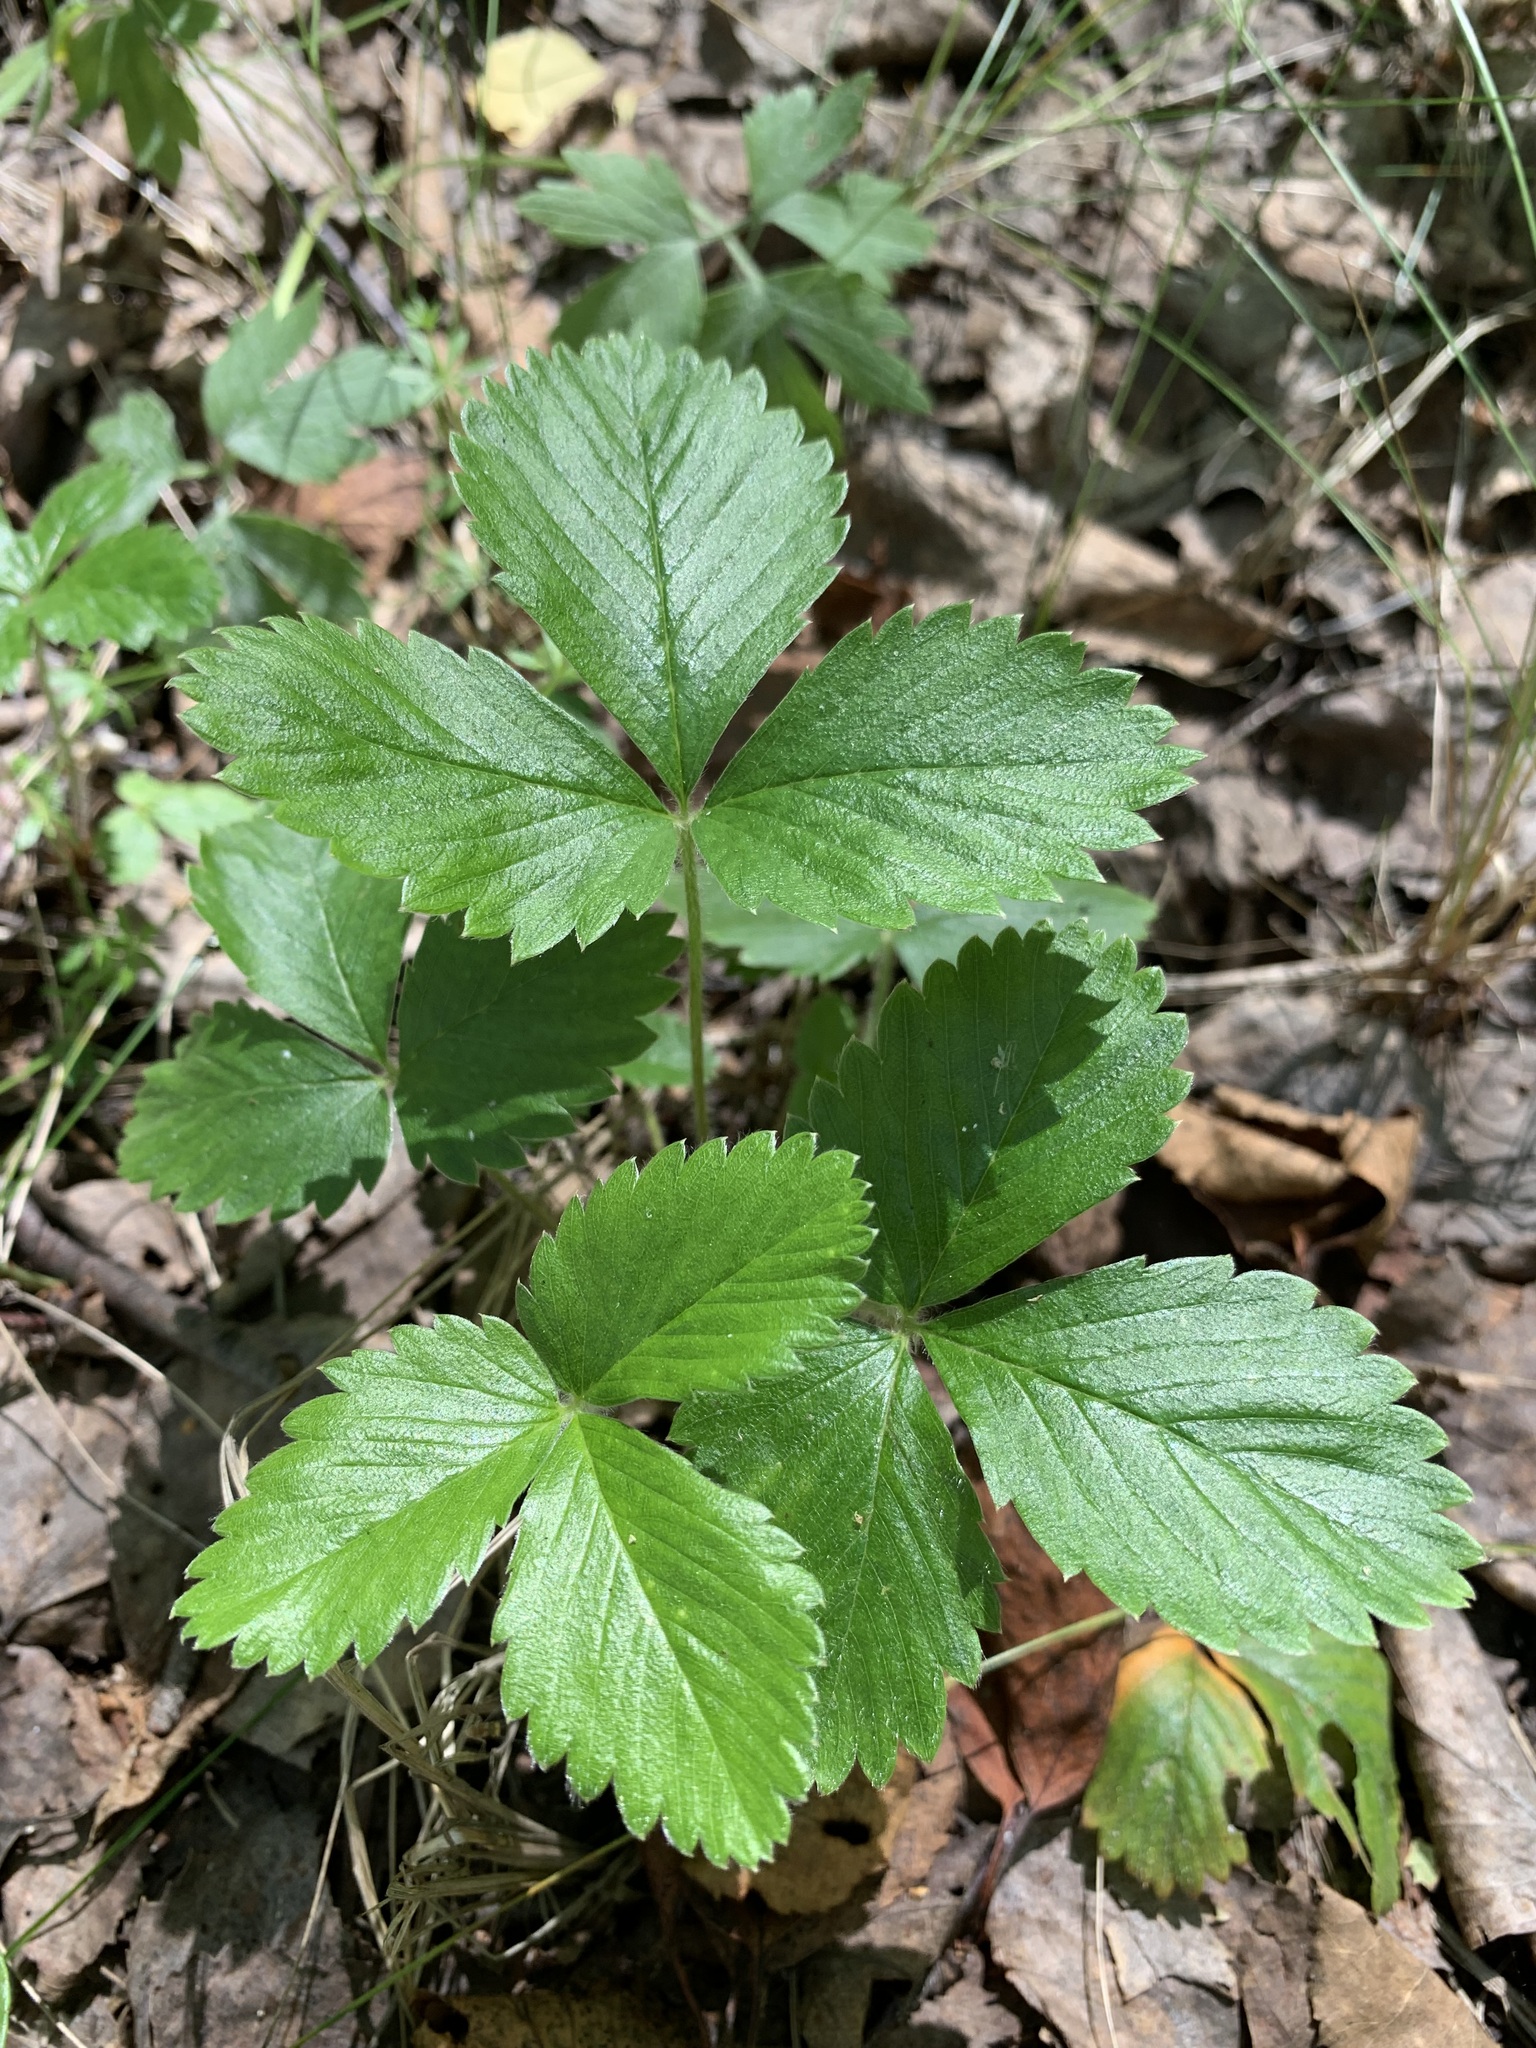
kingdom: Plantae
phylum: Tracheophyta
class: Magnoliopsida
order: Rosales
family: Rosaceae
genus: Fragaria
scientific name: Fragaria vesca
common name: Wild strawberry
